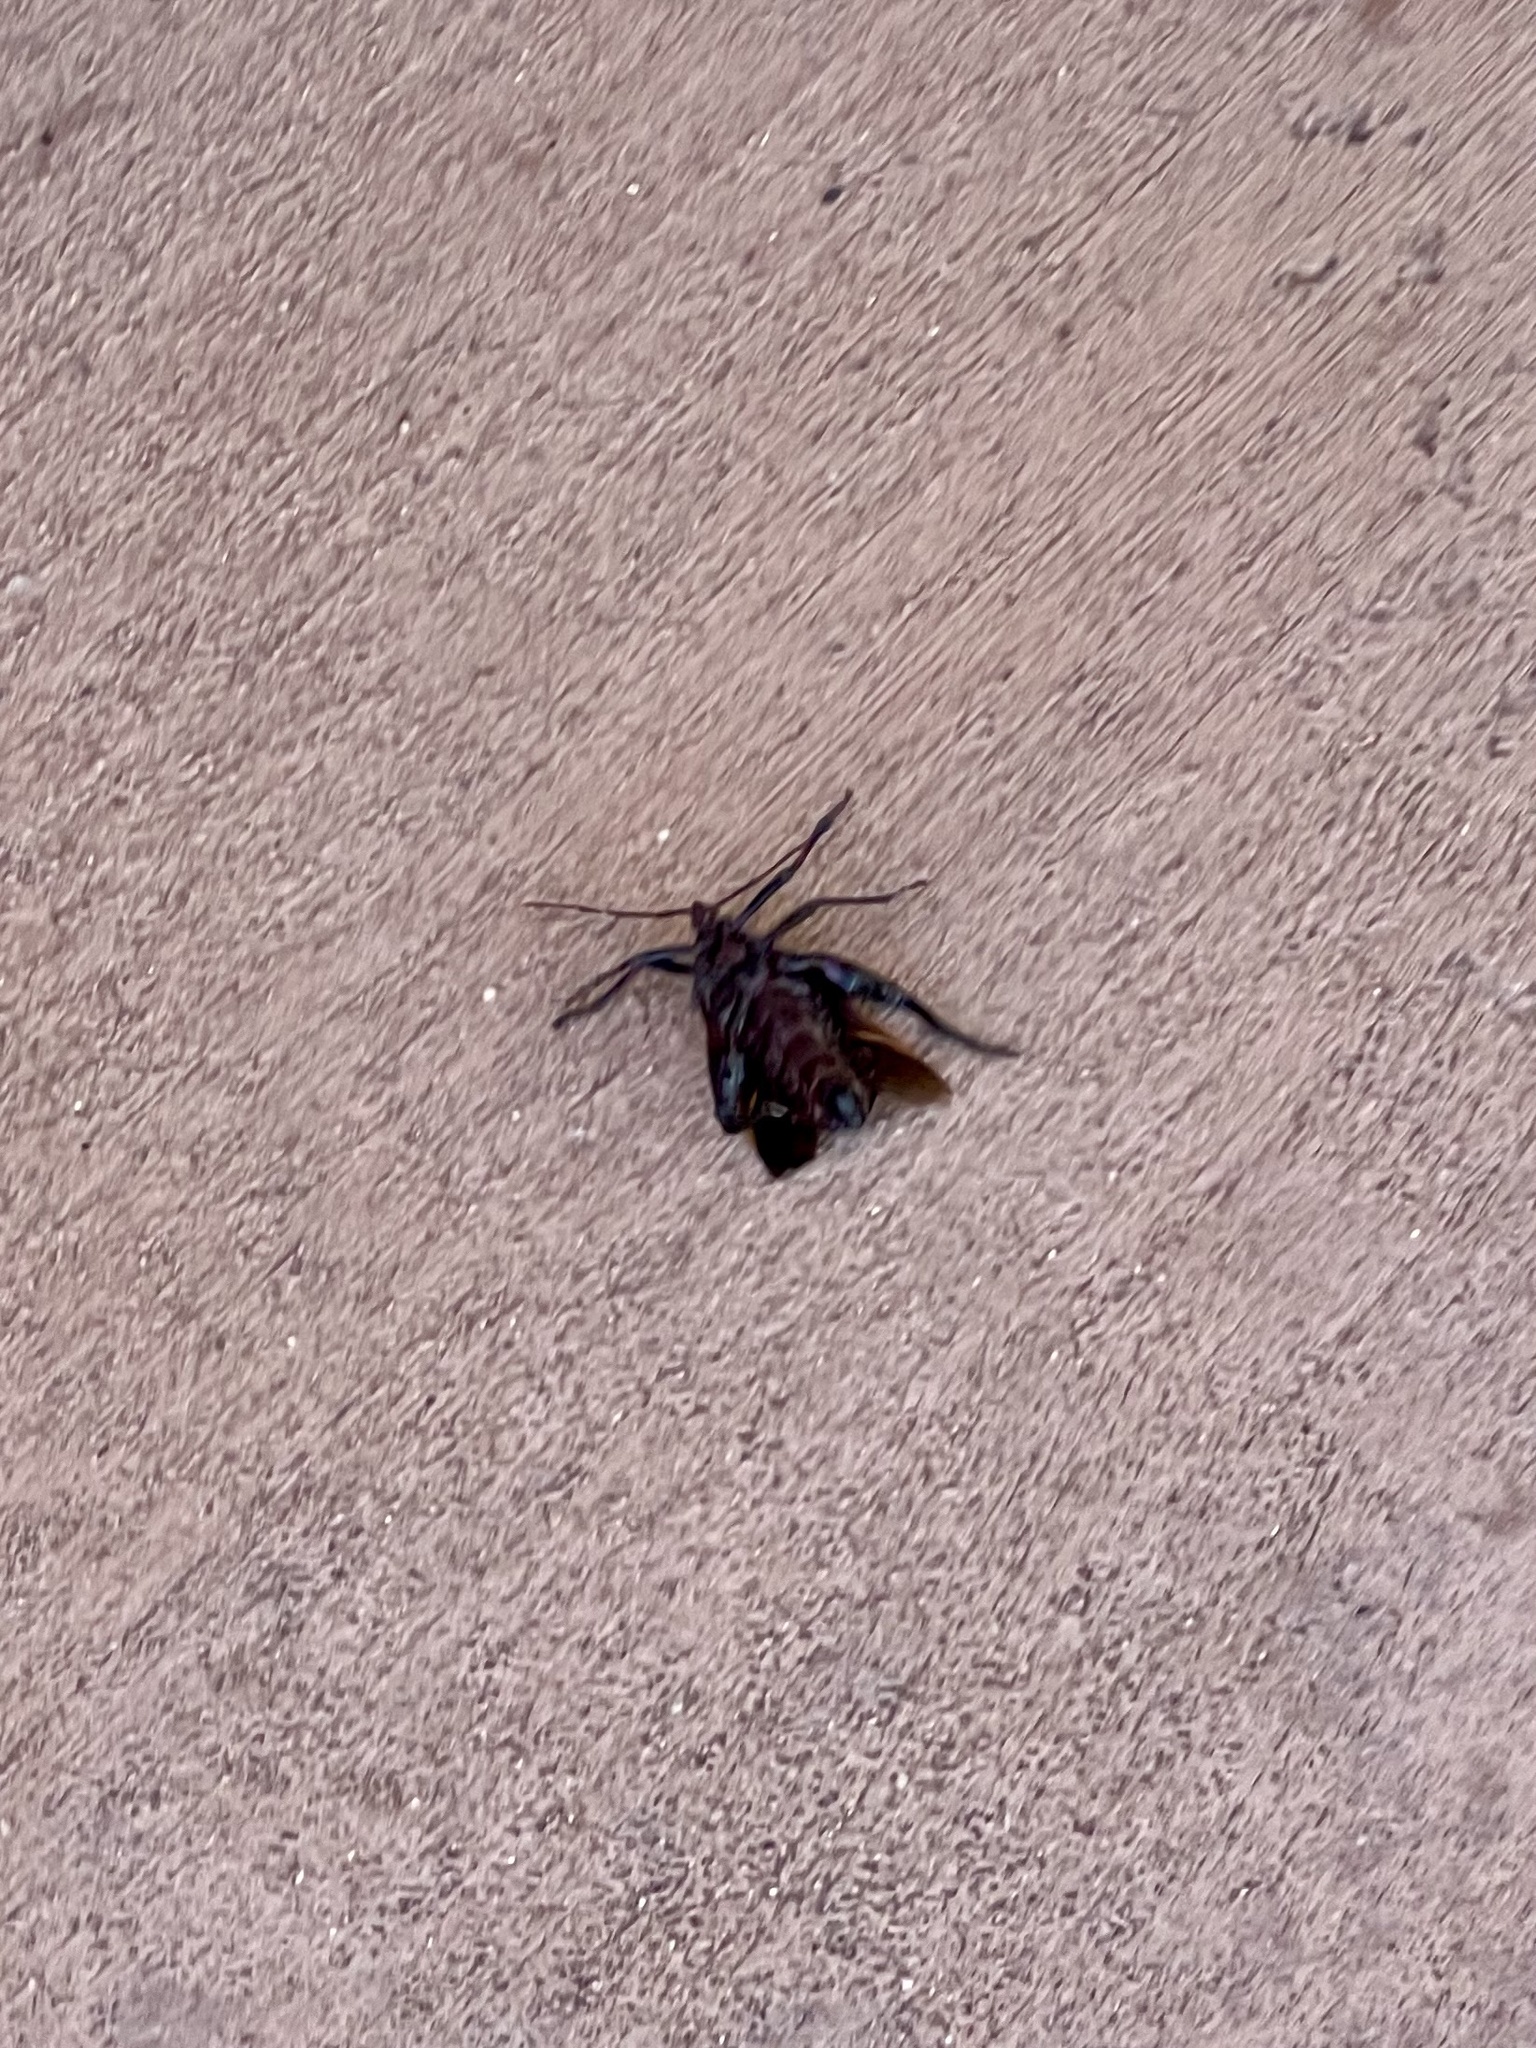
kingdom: Animalia
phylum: Arthropoda
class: Insecta
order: Hemiptera
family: Coreidae
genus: Thasus
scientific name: Thasus neocalifornicus
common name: Giant mesquite bug
